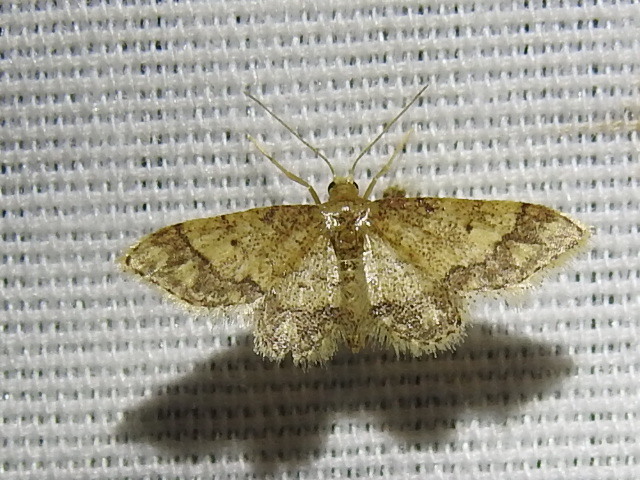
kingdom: Animalia
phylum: Arthropoda
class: Insecta
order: Lepidoptera
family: Geometridae
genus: Idaea
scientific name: Idaea celtima
